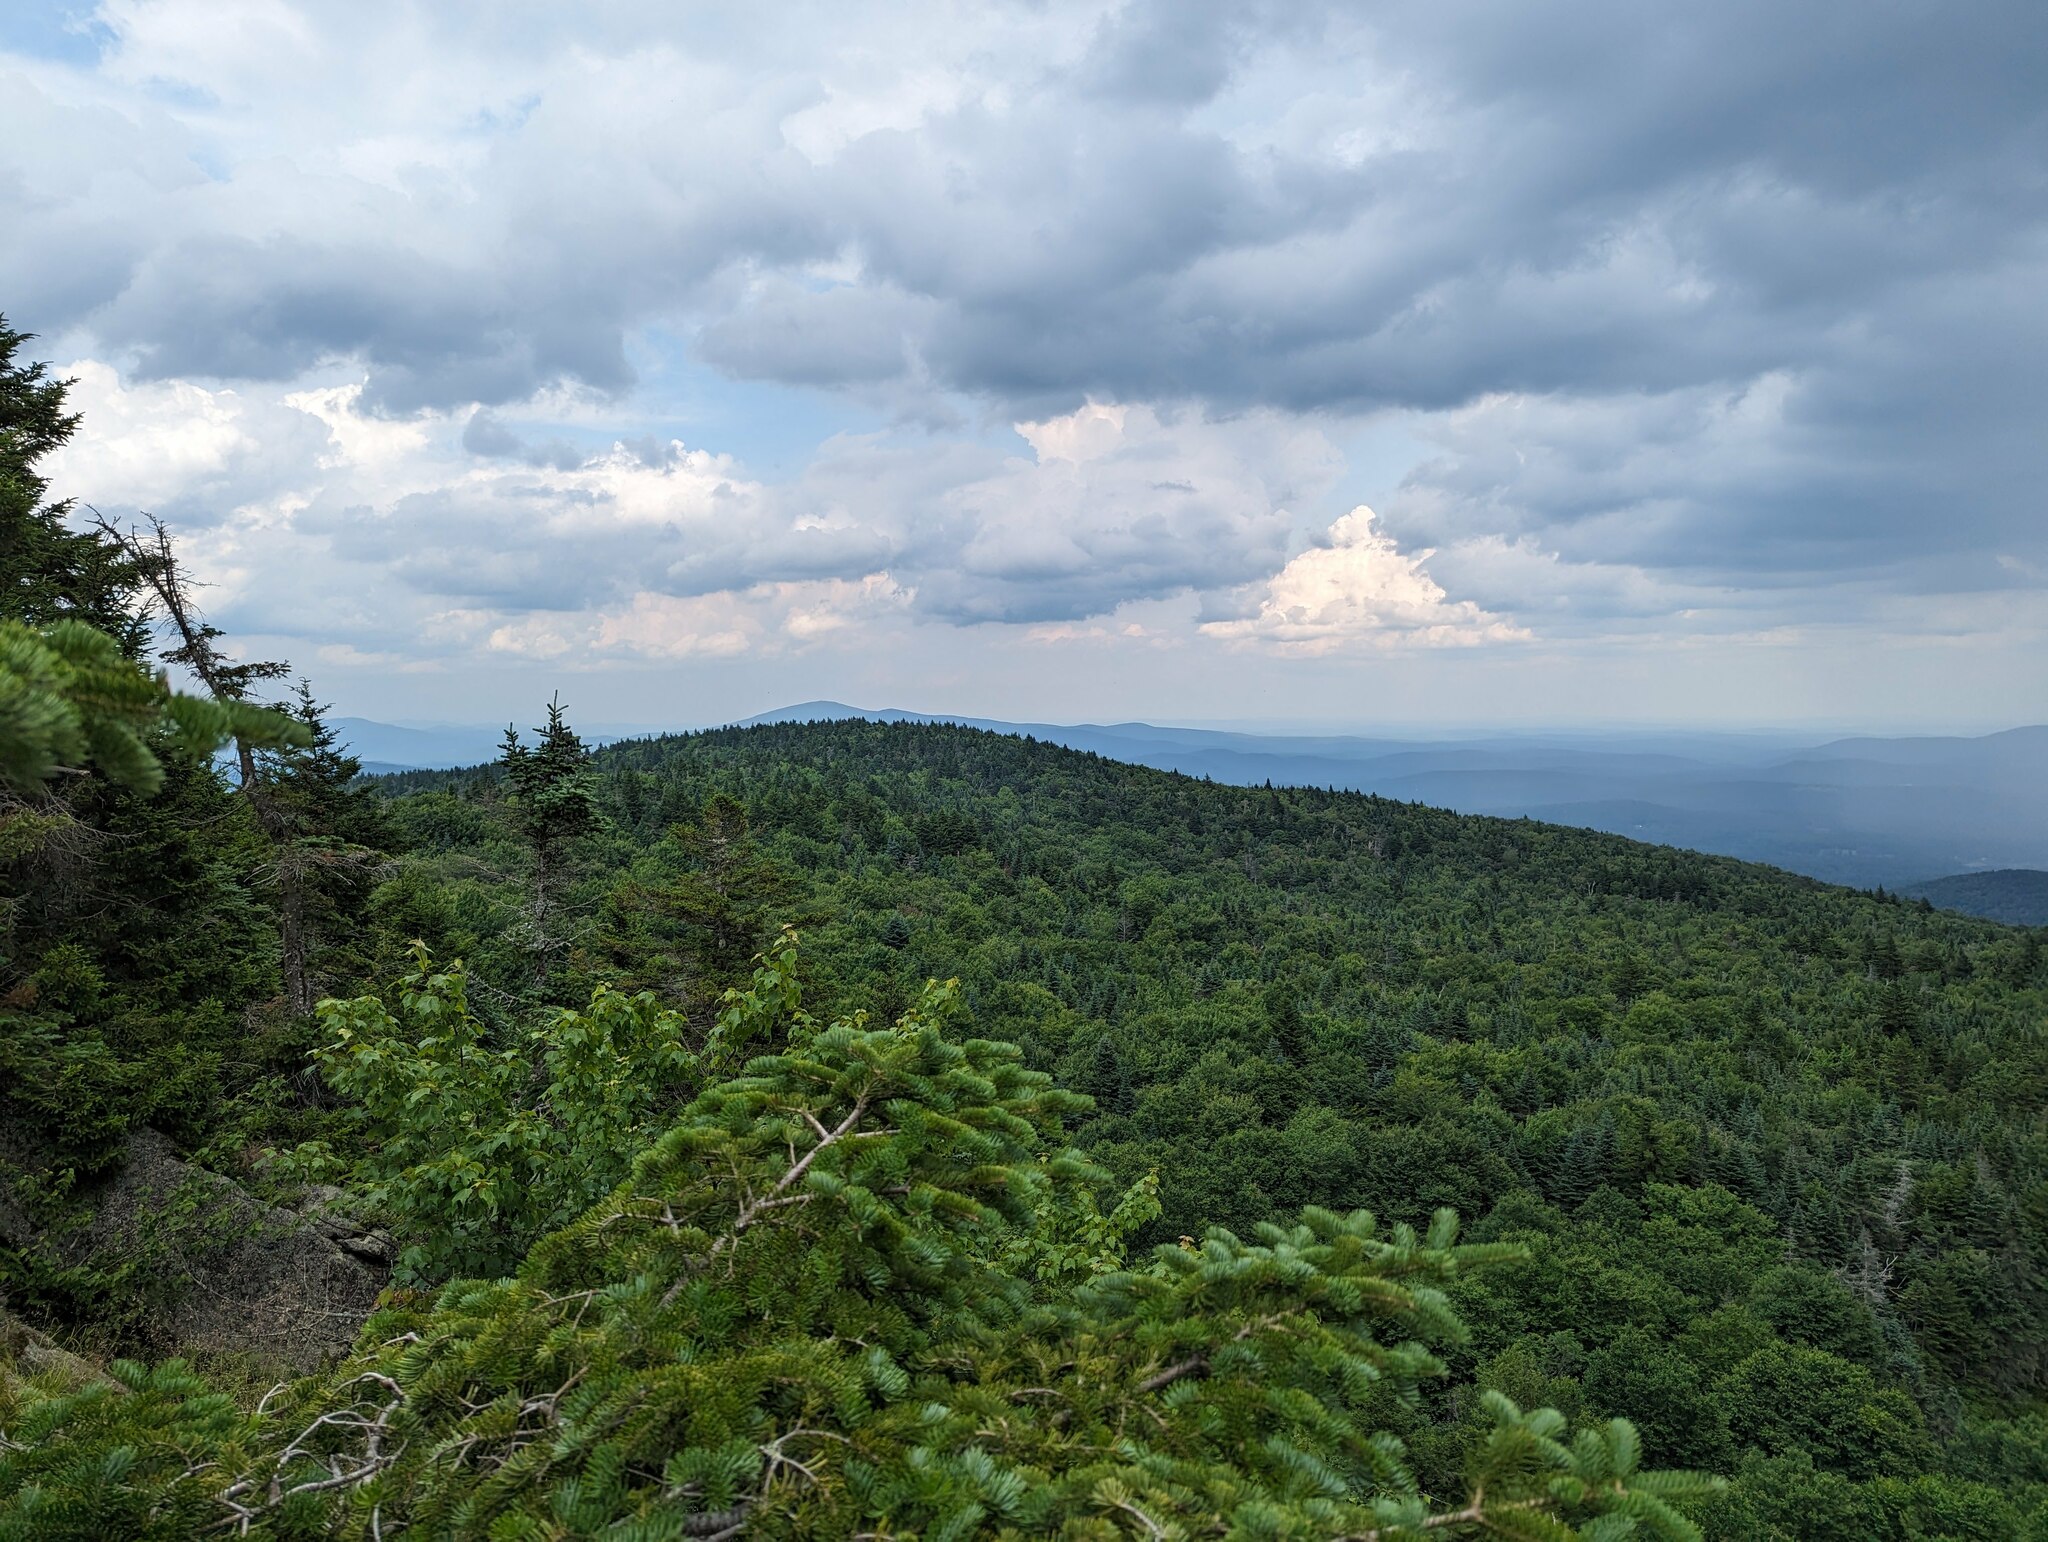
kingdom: Plantae
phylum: Tracheophyta
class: Pinopsida
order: Pinales
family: Pinaceae
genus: Abies
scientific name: Abies balsamea
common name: Balsam fir
